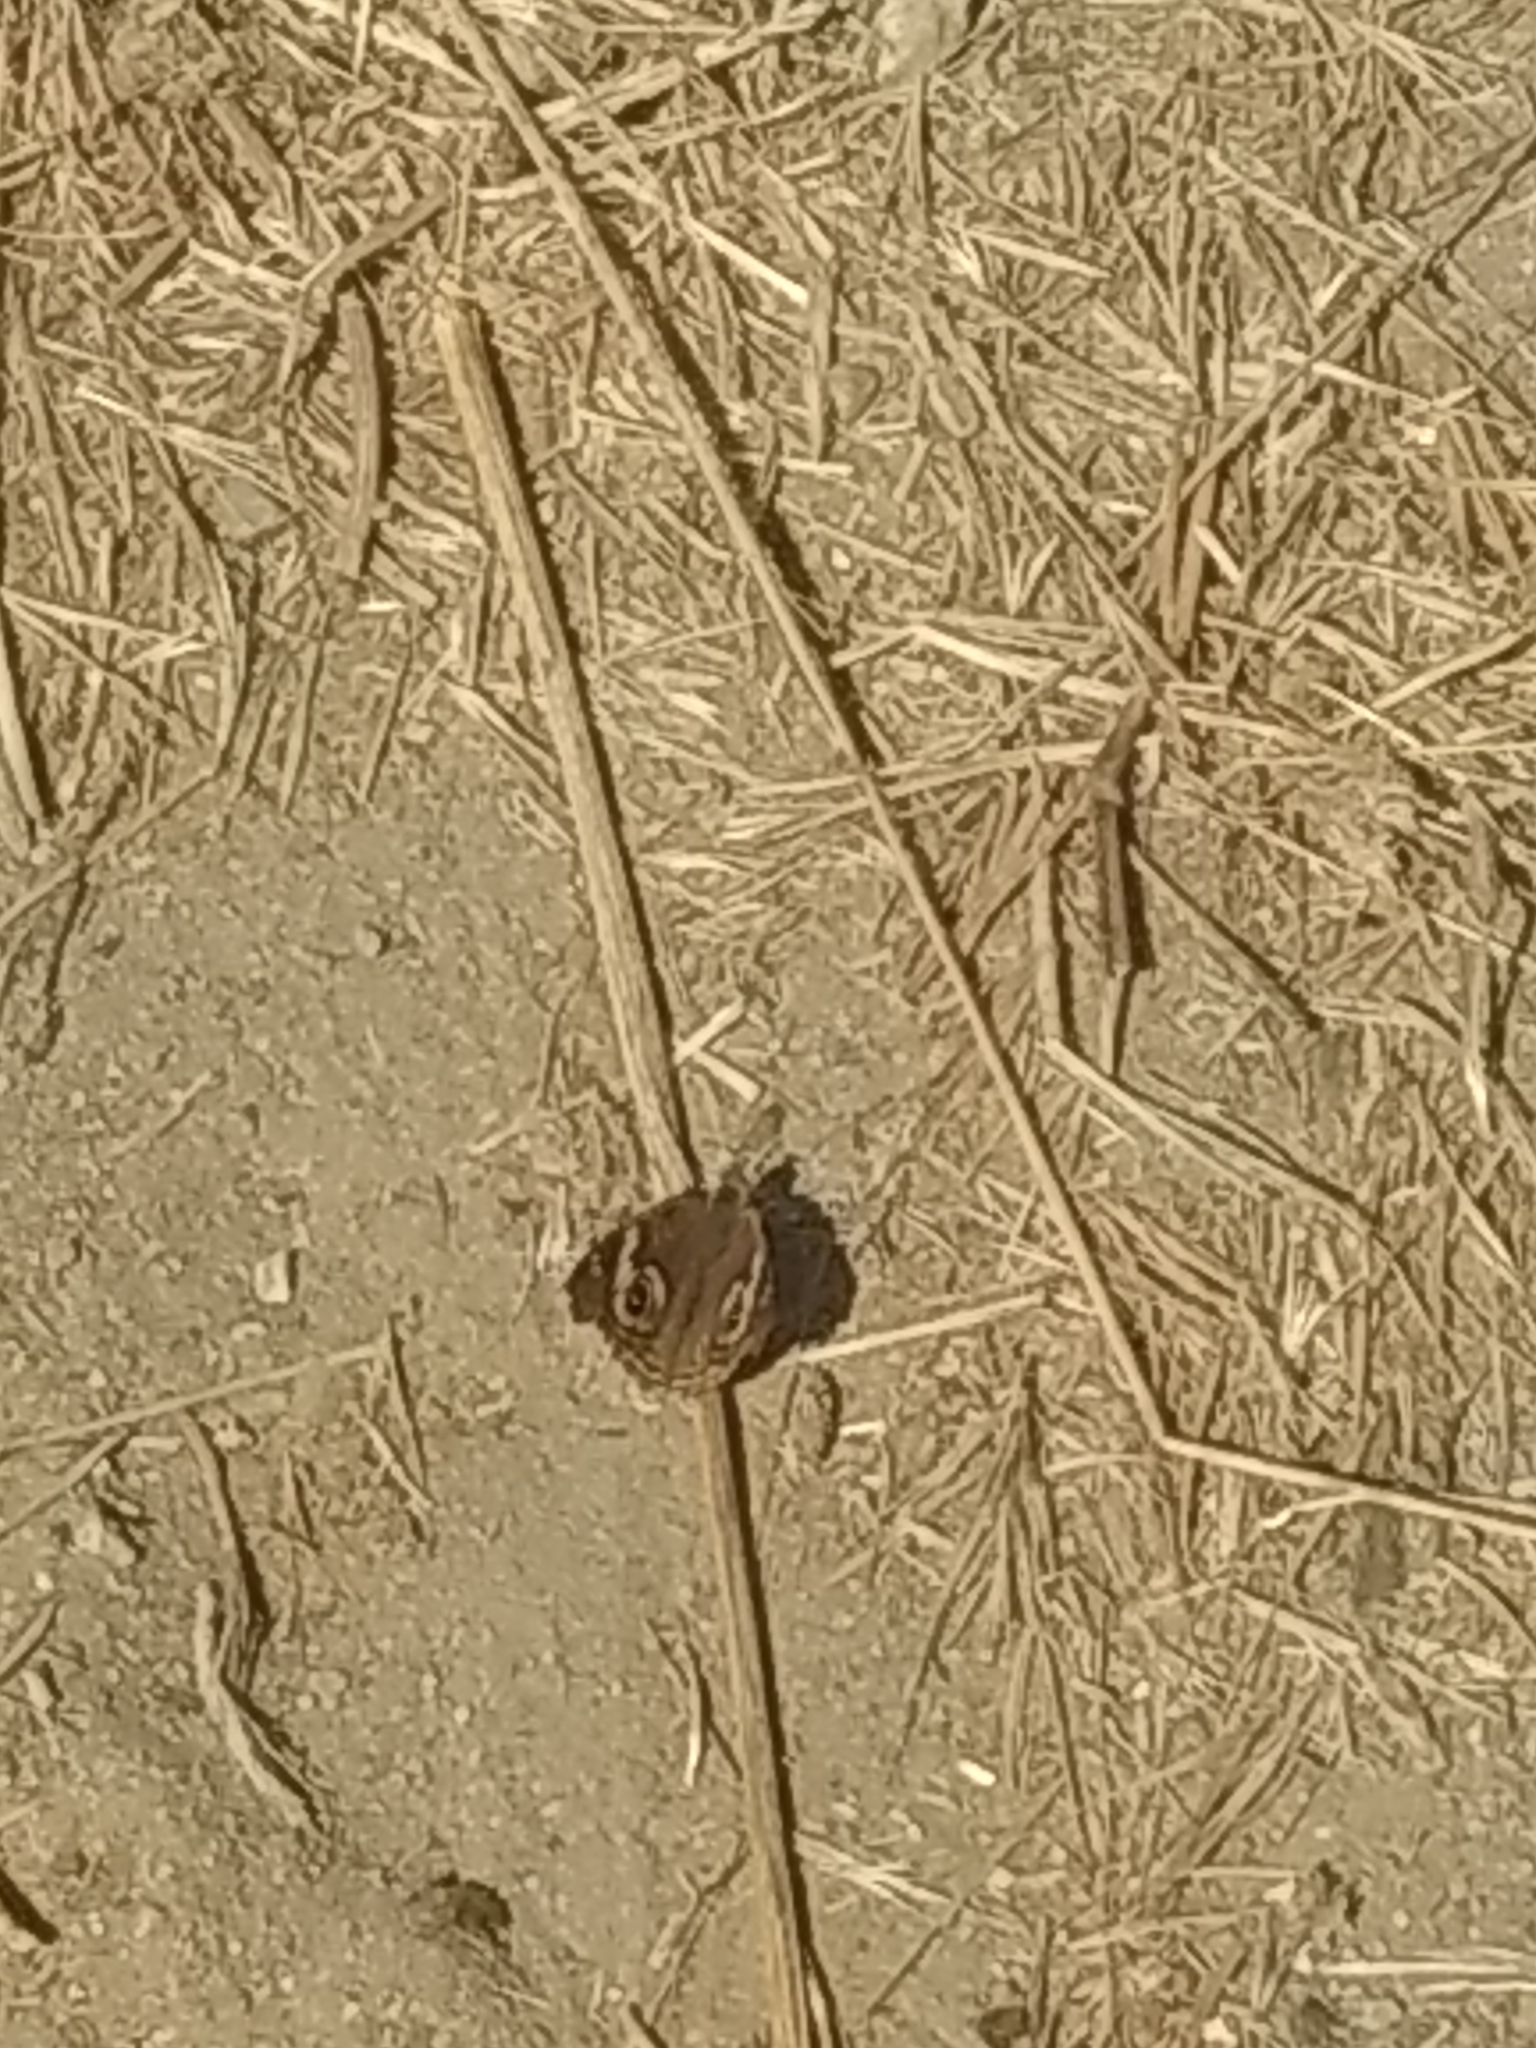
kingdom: Animalia
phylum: Arthropoda
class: Insecta
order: Lepidoptera
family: Nymphalidae
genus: Junonia
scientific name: Junonia grisea
